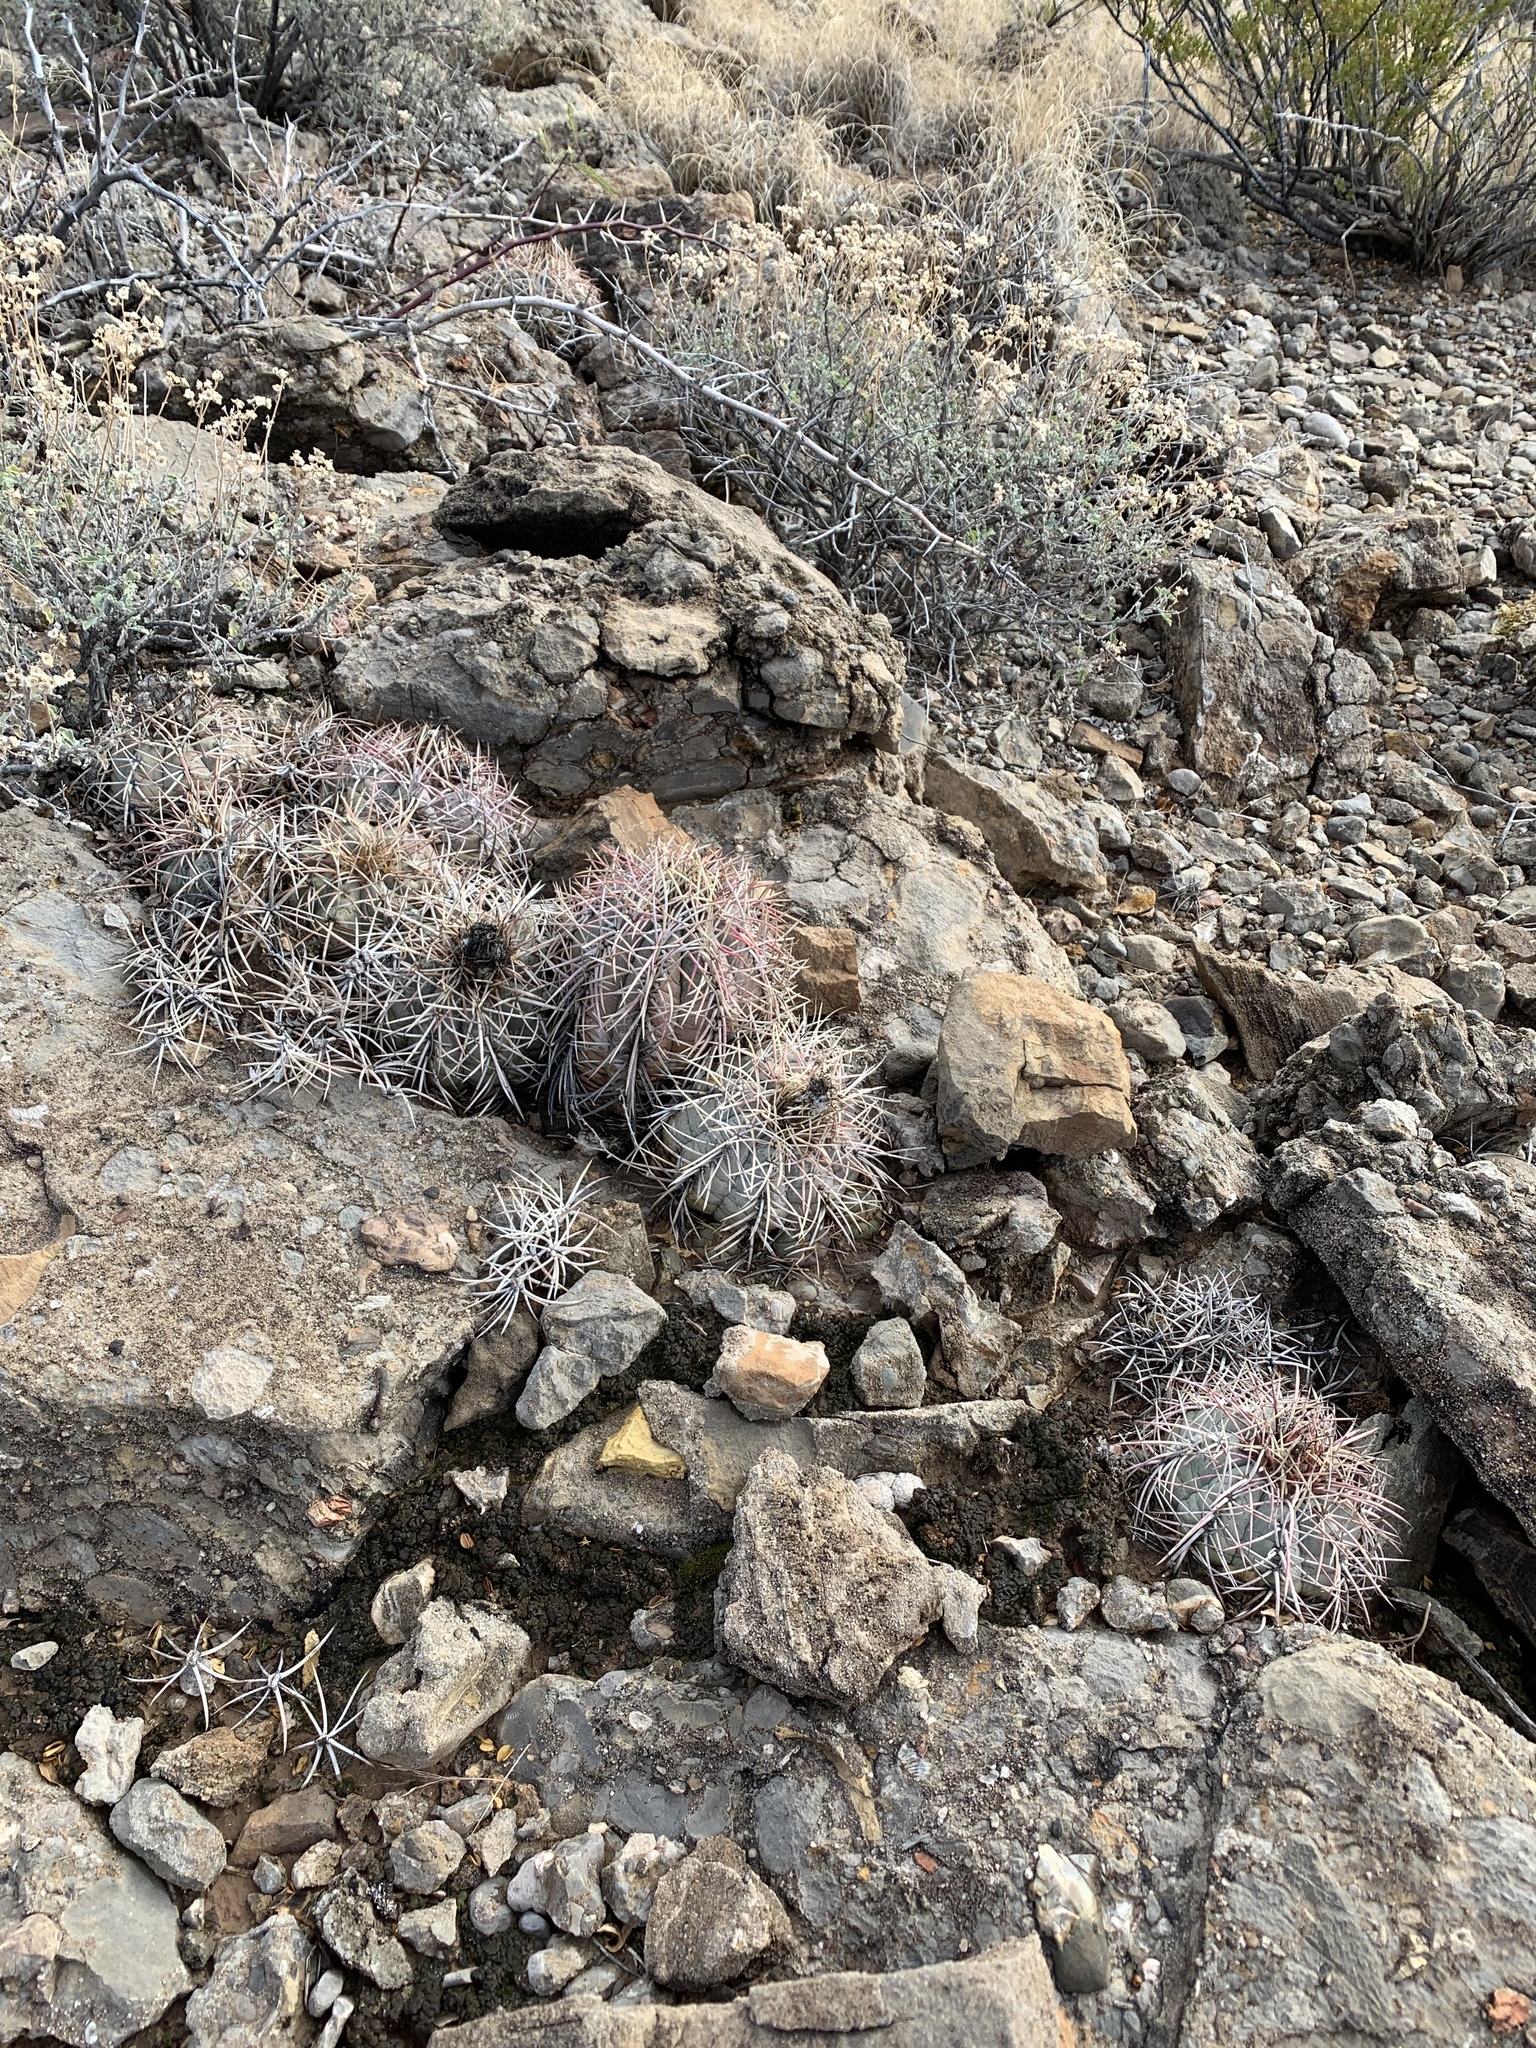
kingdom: Plantae
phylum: Tracheophyta
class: Magnoliopsida
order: Caryophyllales
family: Cactaceae
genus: Echinocactus
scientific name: Echinocactus horizonthalonius
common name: Devilshead
